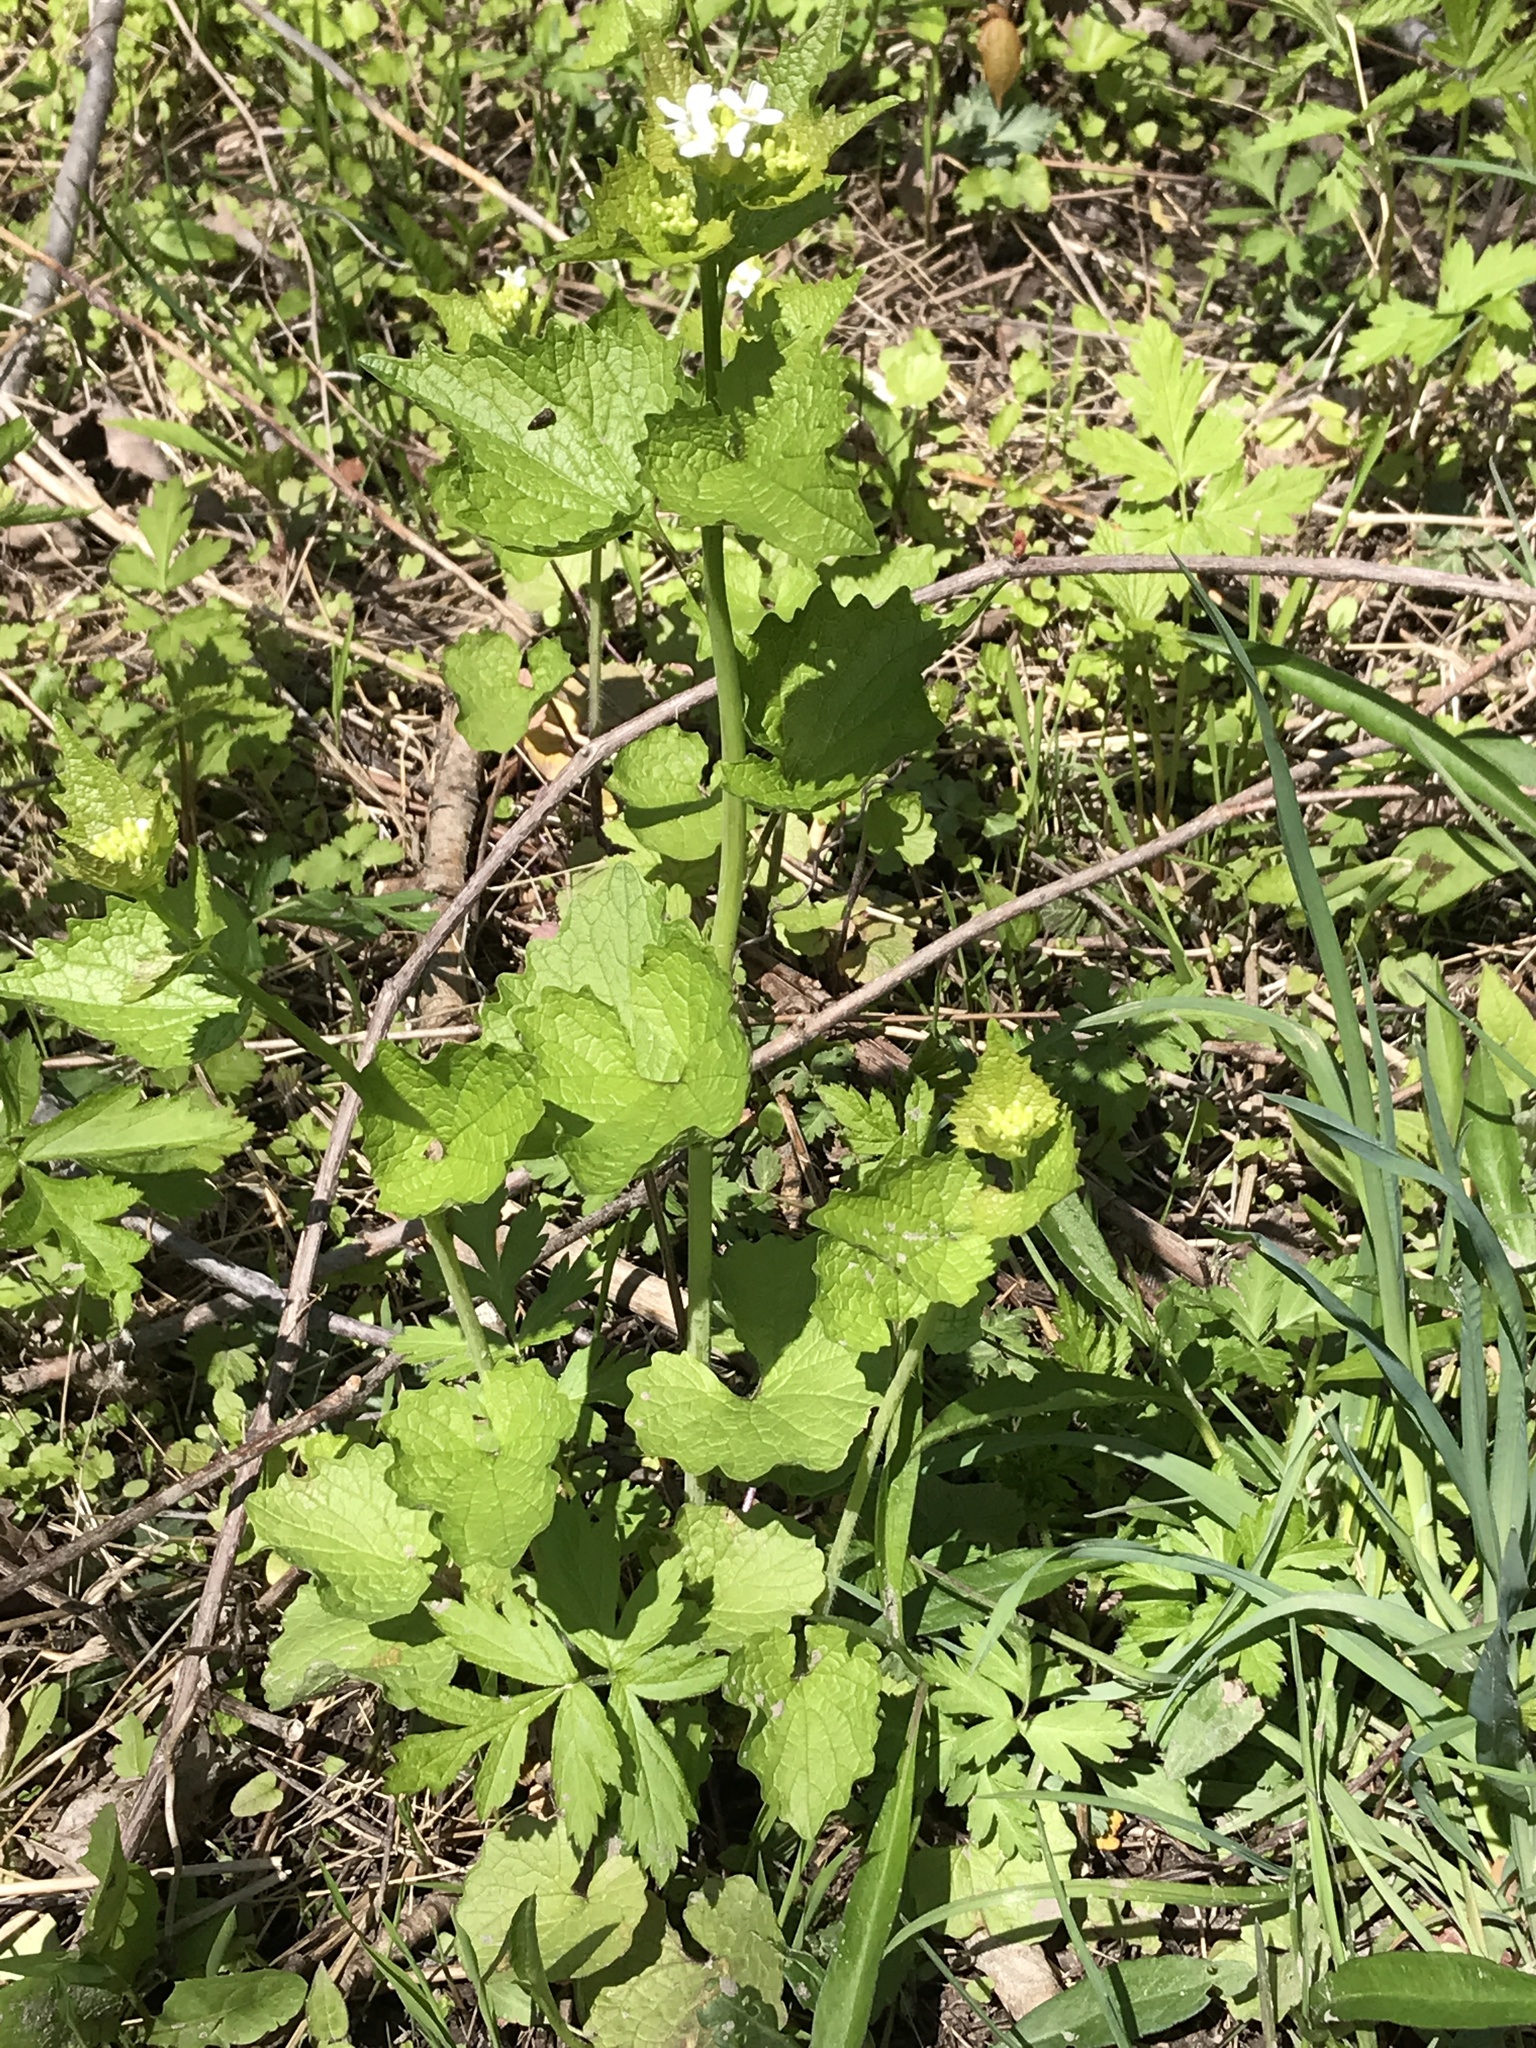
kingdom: Plantae
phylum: Tracheophyta
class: Magnoliopsida
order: Brassicales
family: Brassicaceae
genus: Alliaria
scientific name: Alliaria petiolata
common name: Garlic mustard
